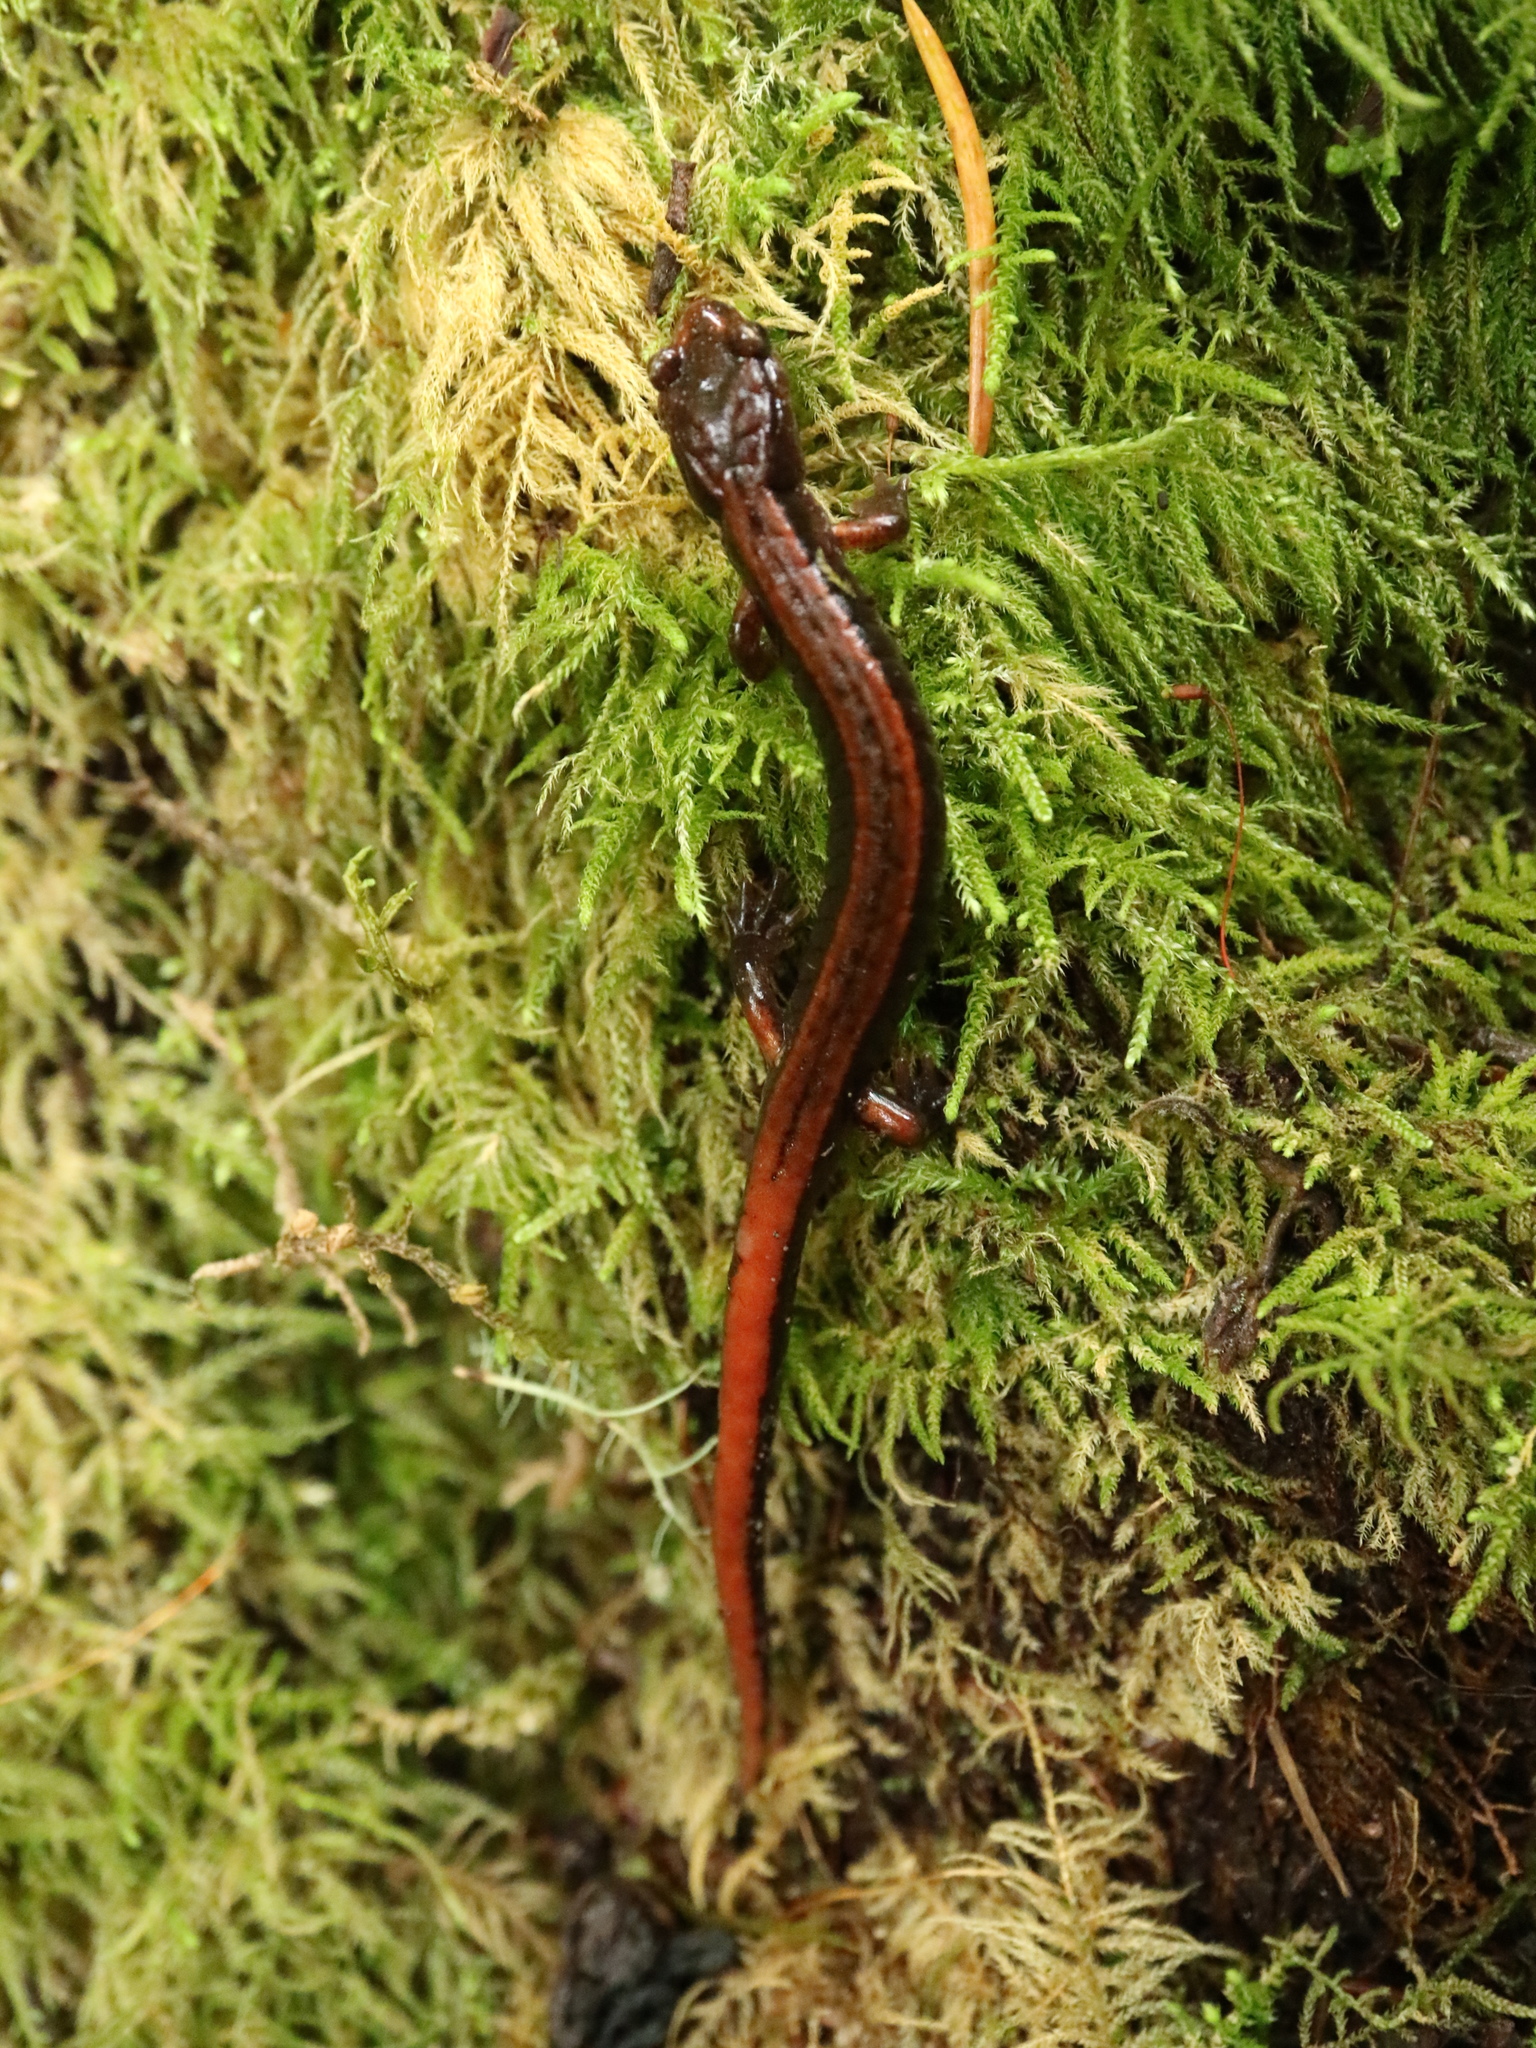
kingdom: Animalia
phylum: Chordata
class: Amphibia
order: Caudata
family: Plethodontidae
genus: Plethodon
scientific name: Plethodon vehiculum
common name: Western red-backed salamander
